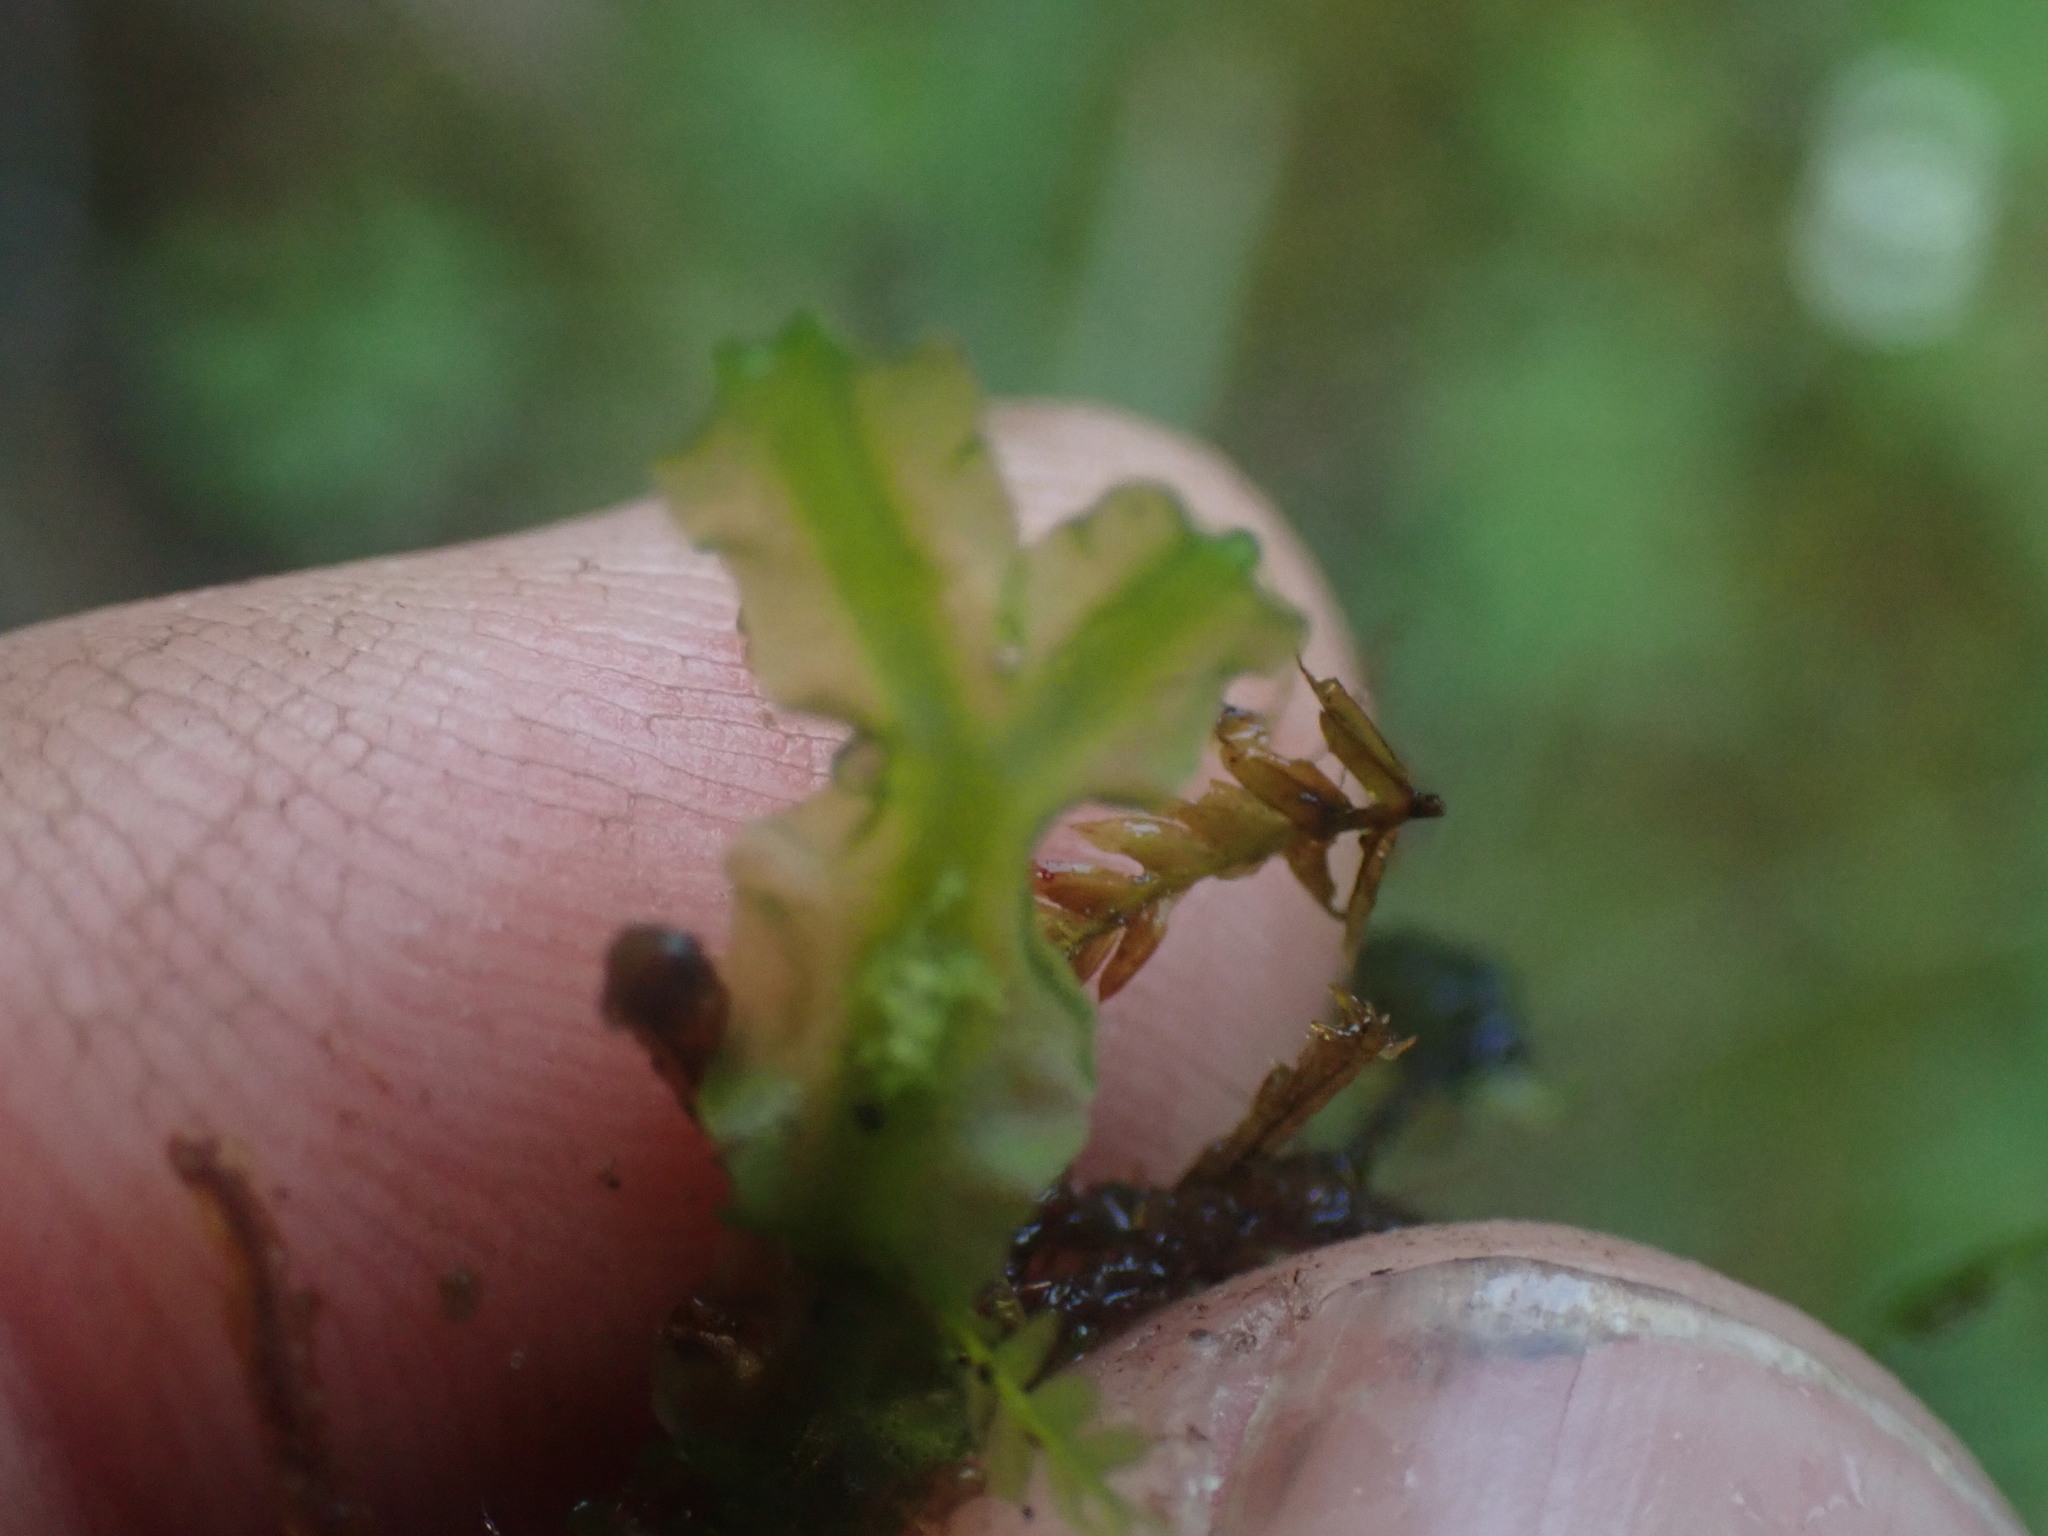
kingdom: Plantae
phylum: Marchantiophyta
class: Jungermanniopsida
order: Pallaviciniales
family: Pallaviciniaceae
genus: Pallavicinia
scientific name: Pallavicinia lyellii
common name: Veilwort
